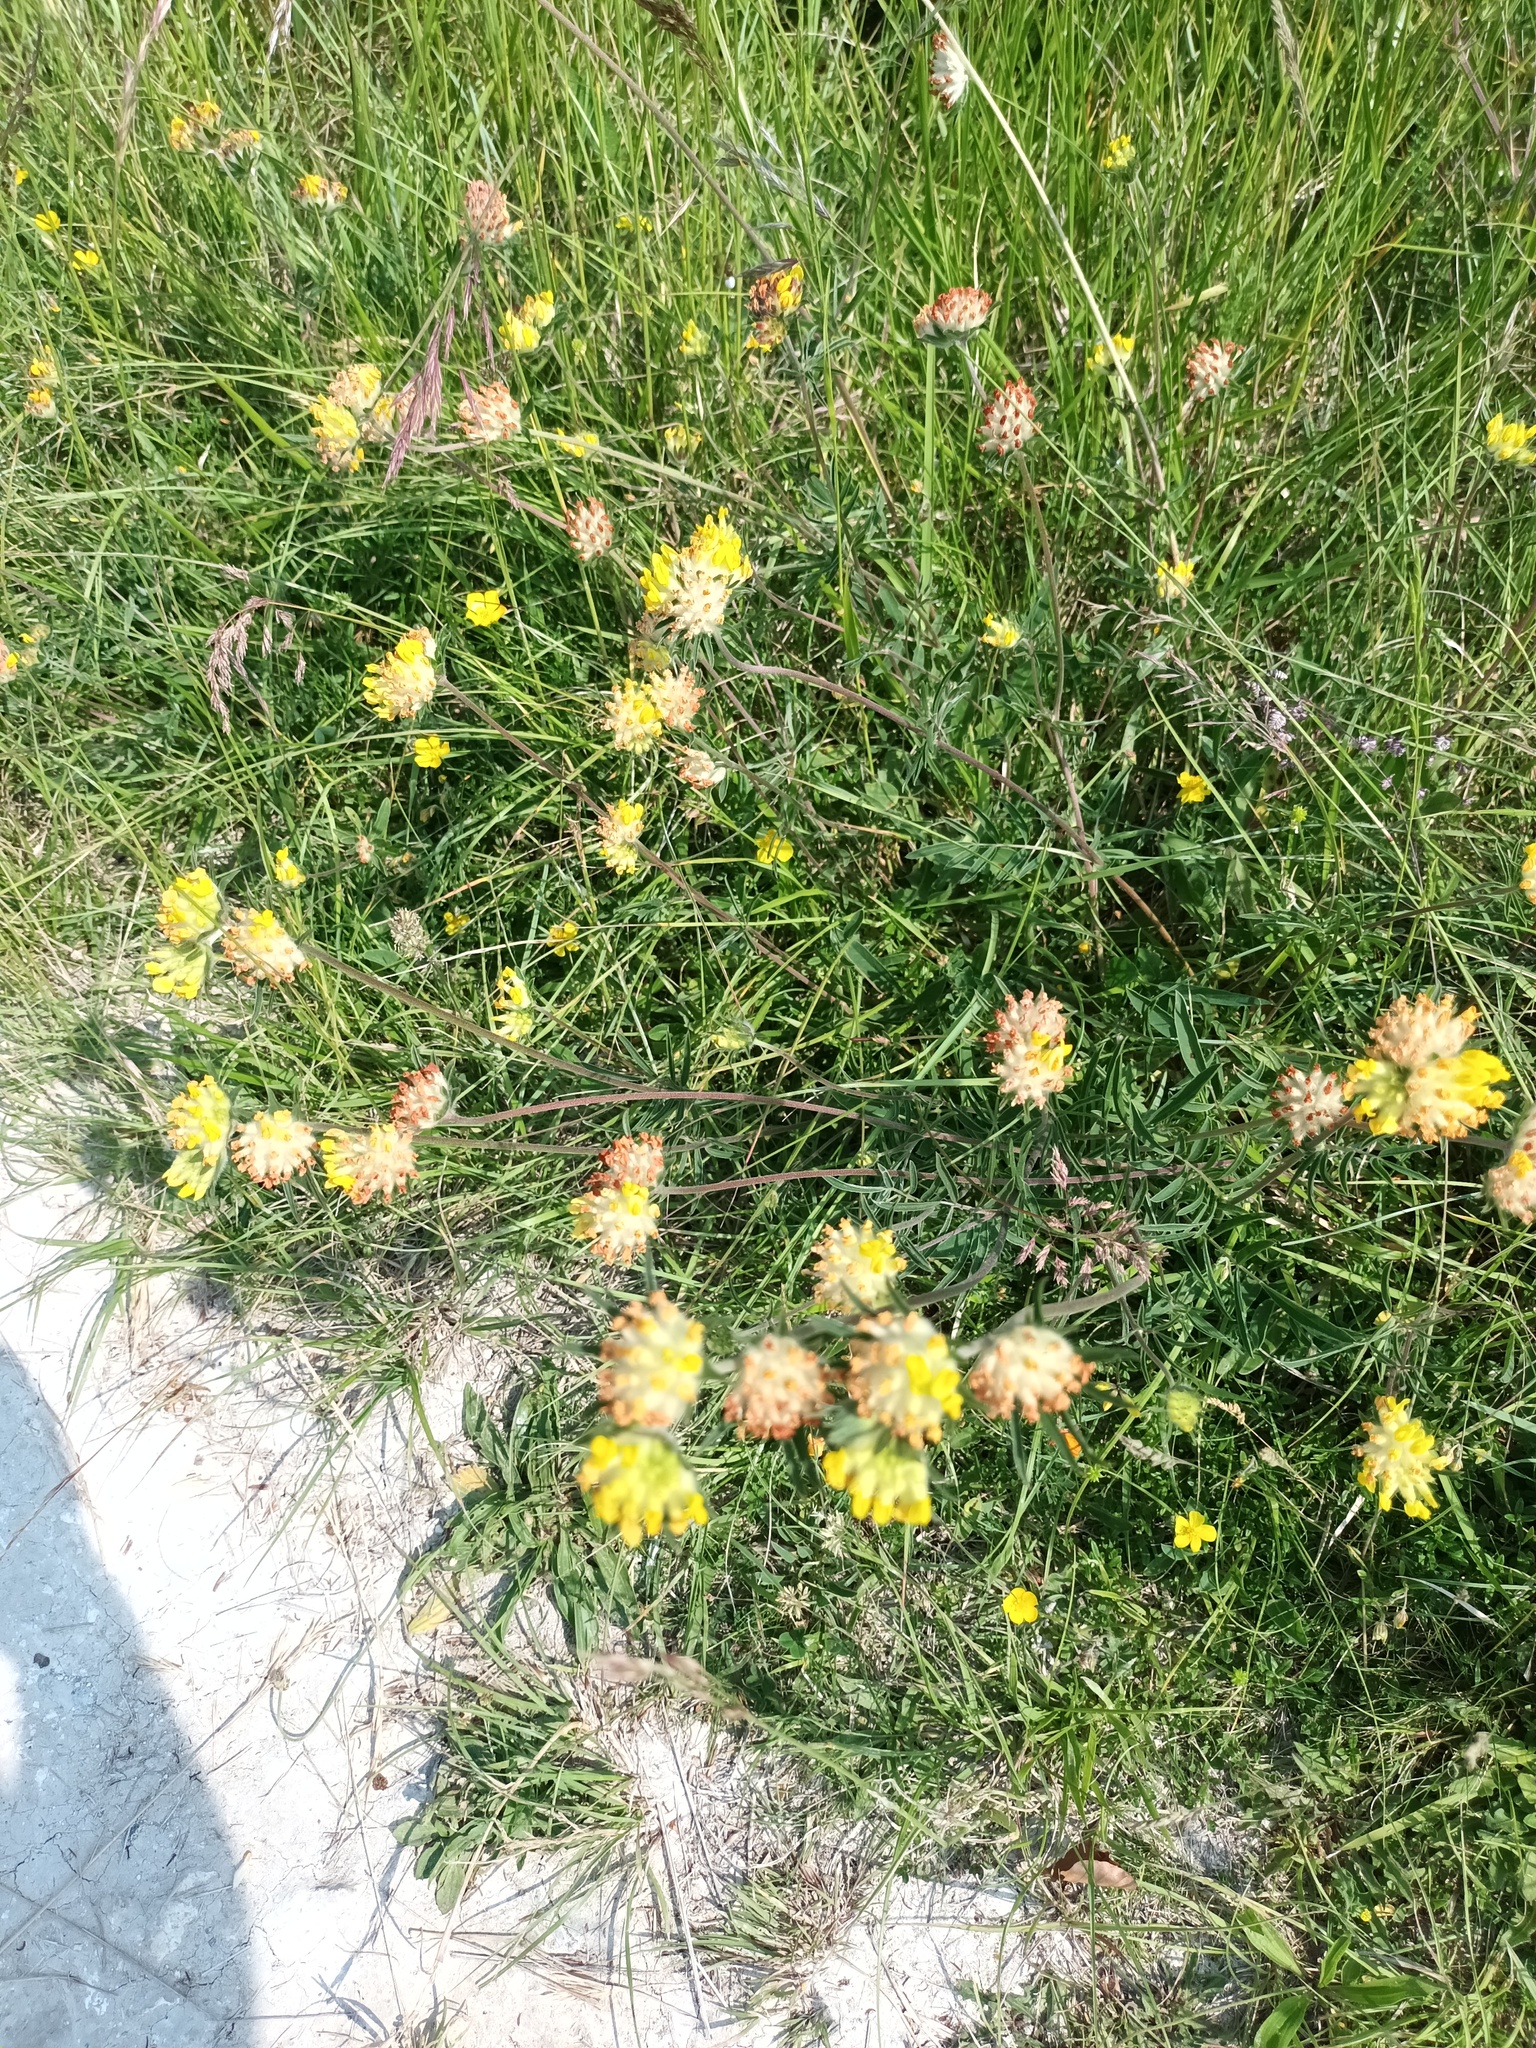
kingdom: Plantae
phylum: Tracheophyta
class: Magnoliopsida
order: Fabales
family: Fabaceae
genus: Anthyllis
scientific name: Anthyllis vulneraria
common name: Kidney vetch
